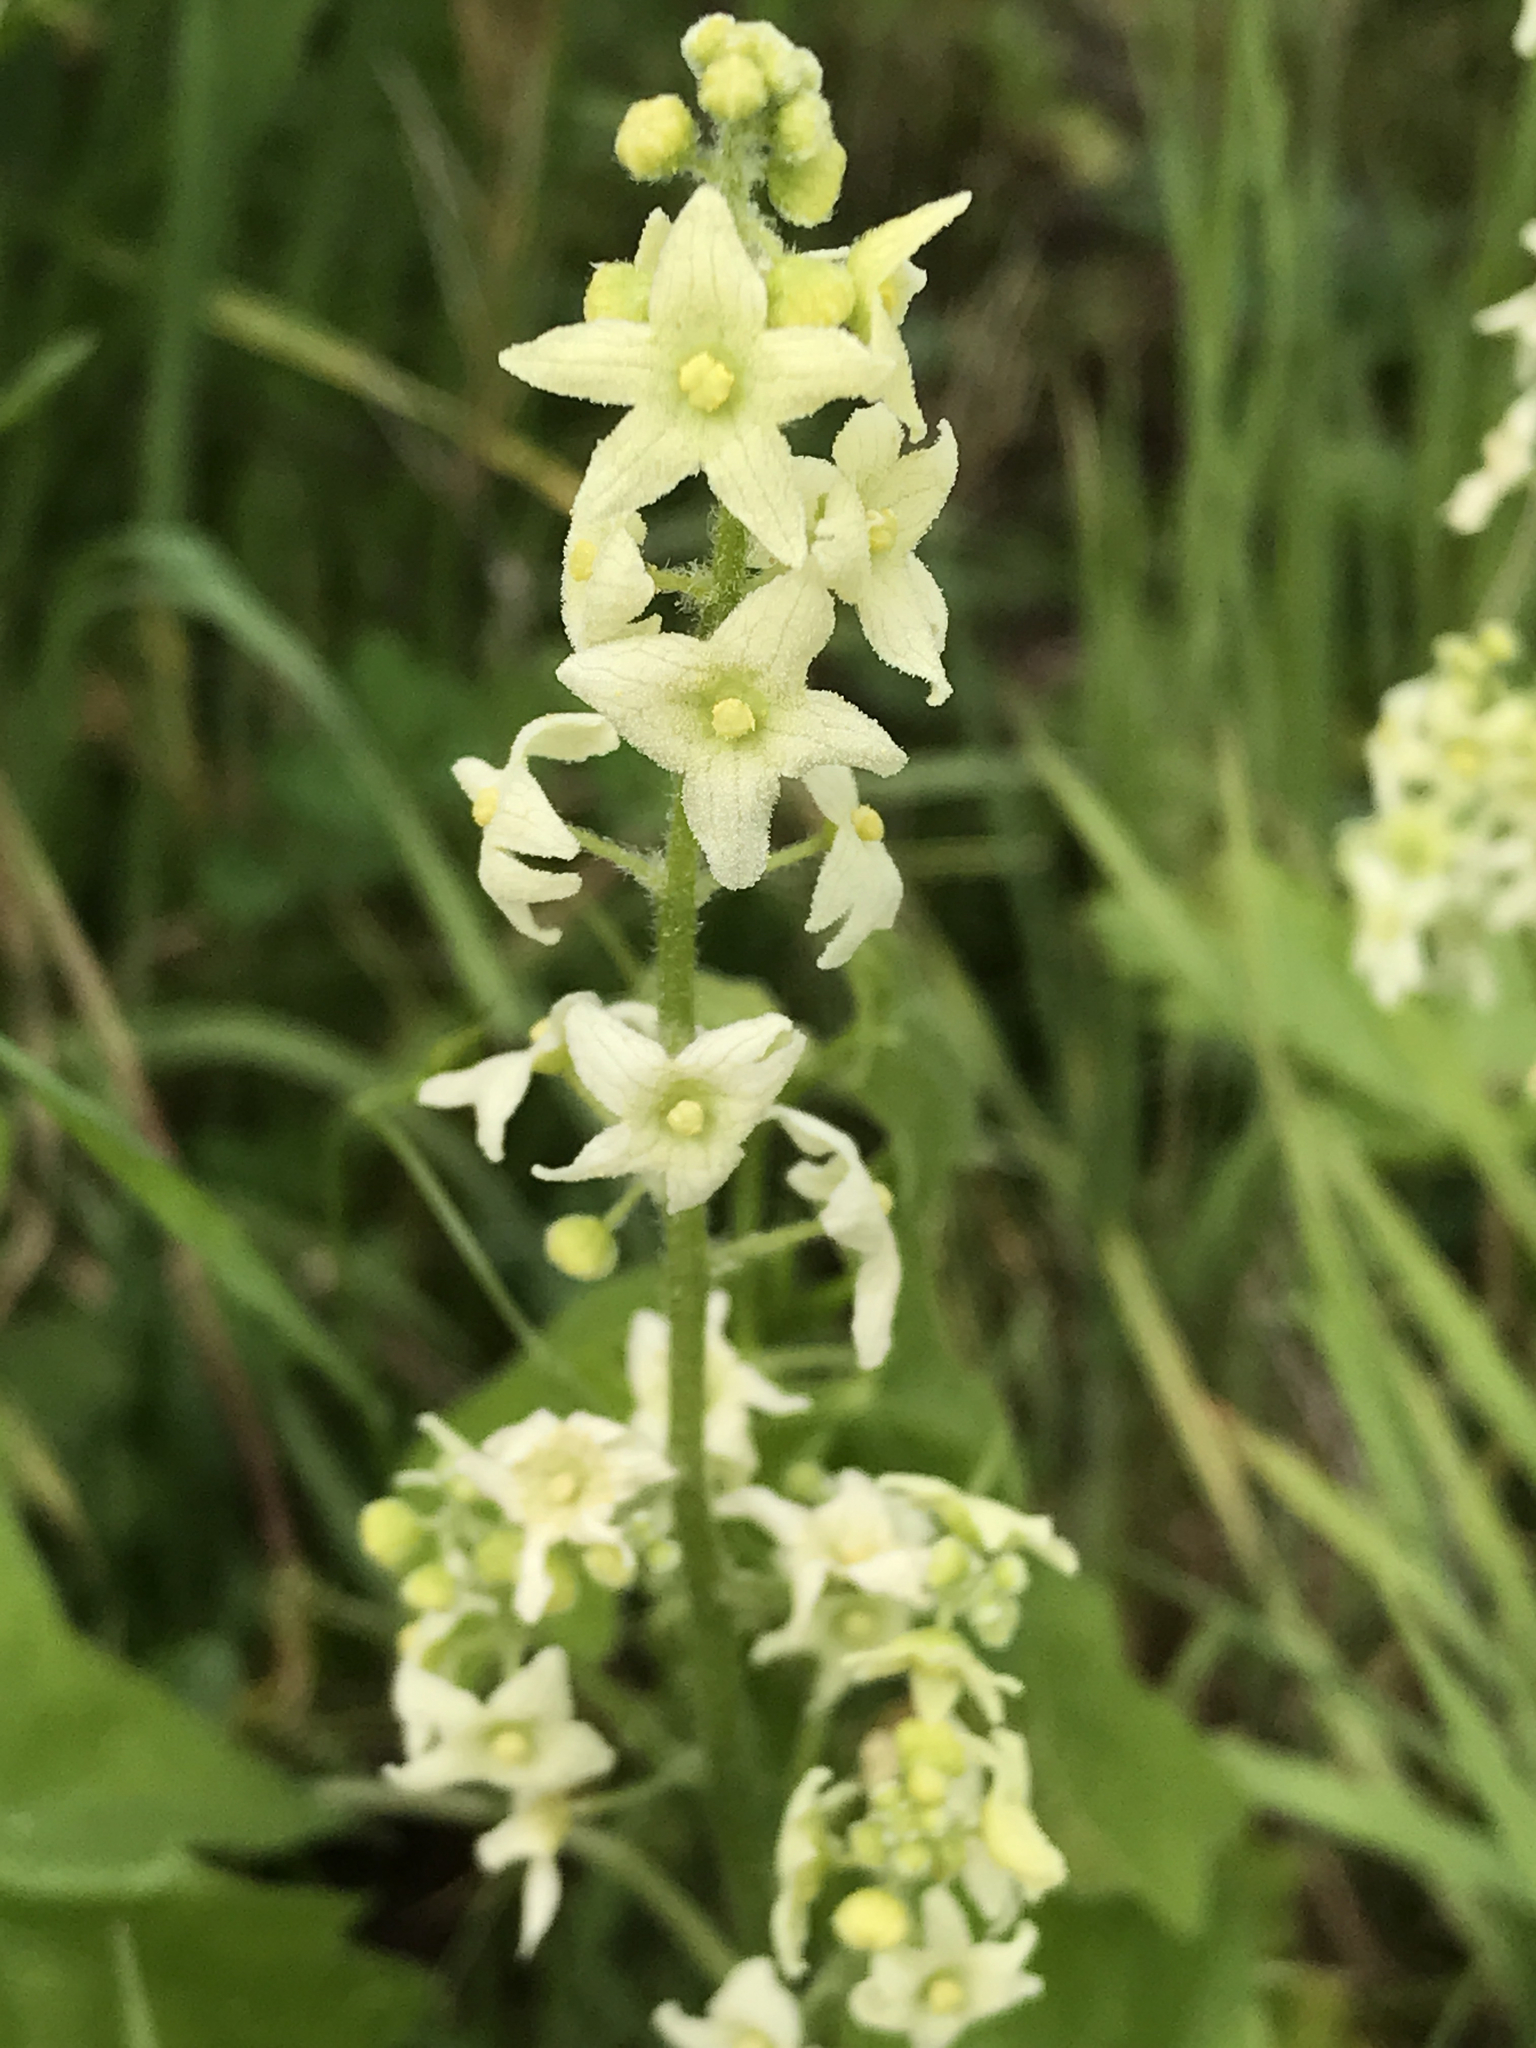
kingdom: Plantae
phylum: Tracheophyta
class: Magnoliopsida
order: Cucurbitales
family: Cucurbitaceae
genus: Marah
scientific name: Marah fabacea
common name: California manroot
